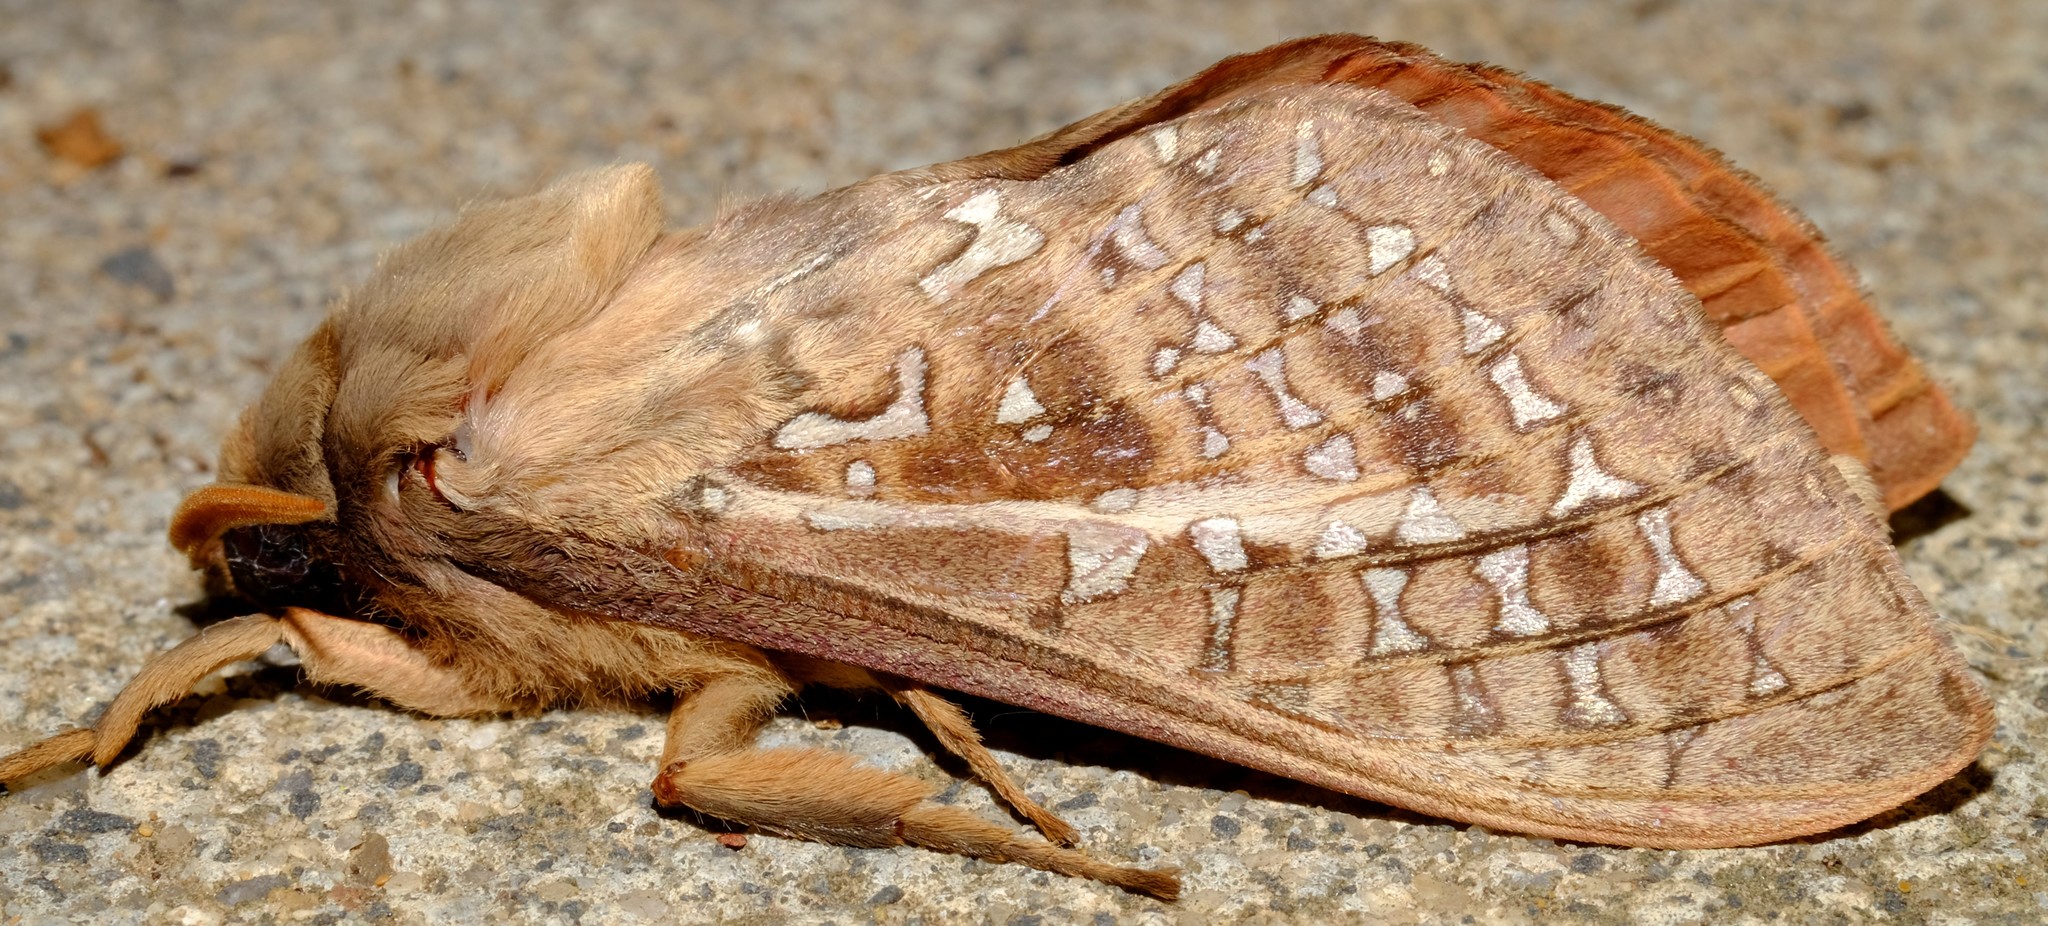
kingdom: Animalia
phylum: Arthropoda
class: Insecta
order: Lepidoptera
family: Hepialidae
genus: Oxycanus
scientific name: Oxycanus australis
